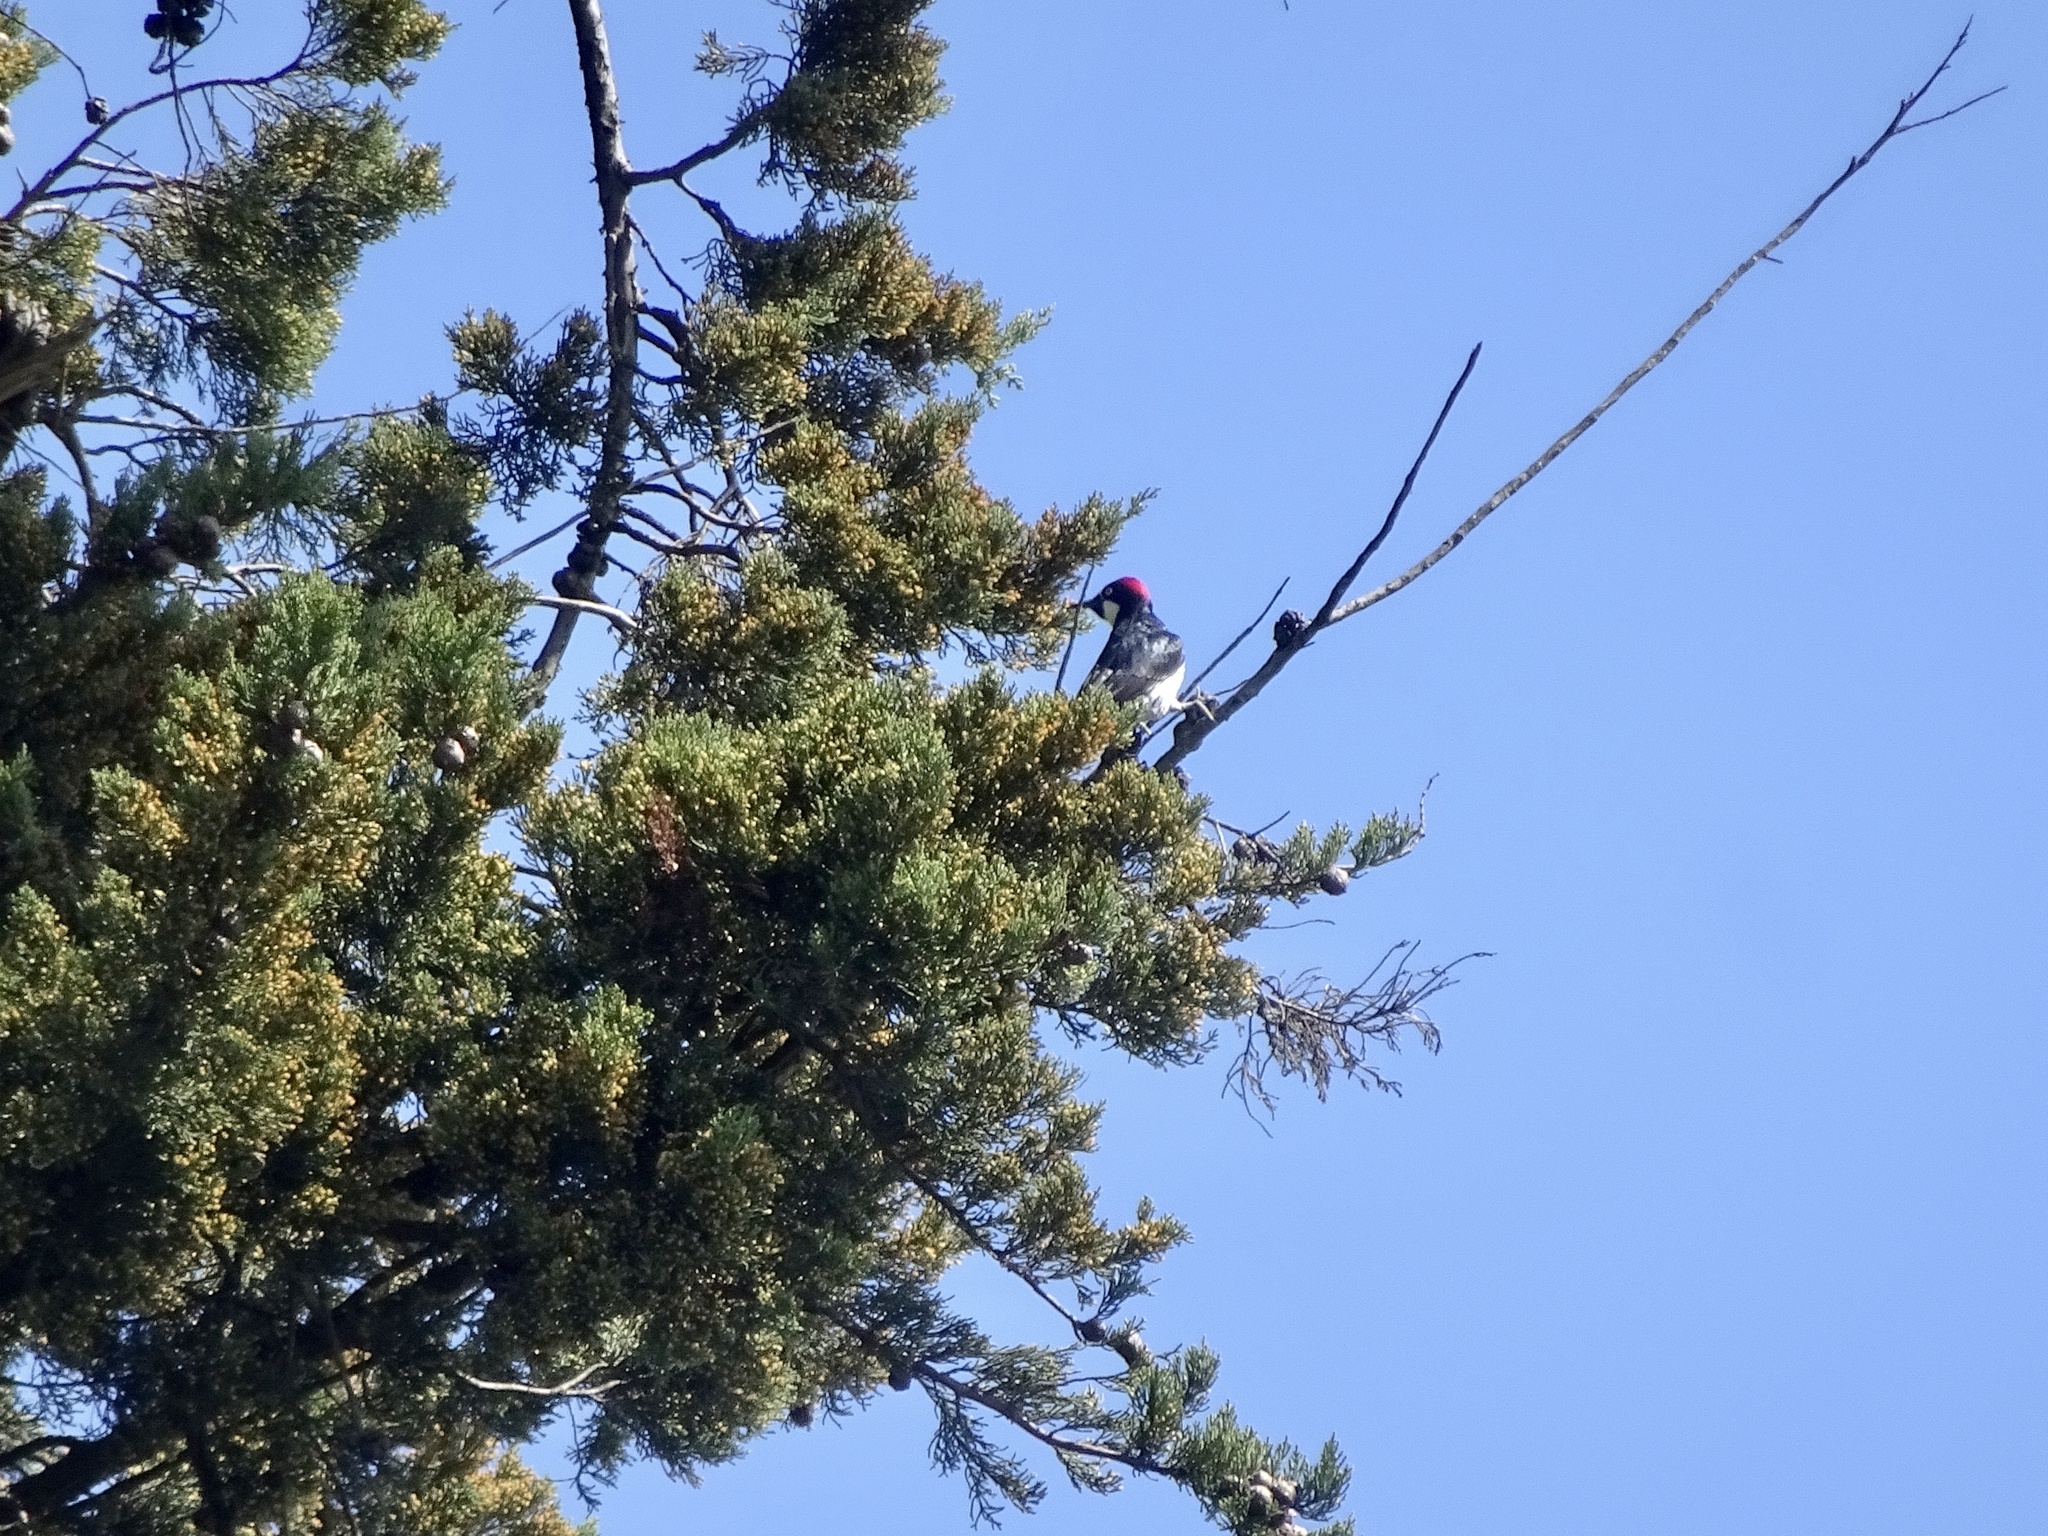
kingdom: Animalia
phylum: Chordata
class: Aves
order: Piciformes
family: Picidae
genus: Melanerpes
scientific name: Melanerpes formicivorus
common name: Acorn woodpecker
